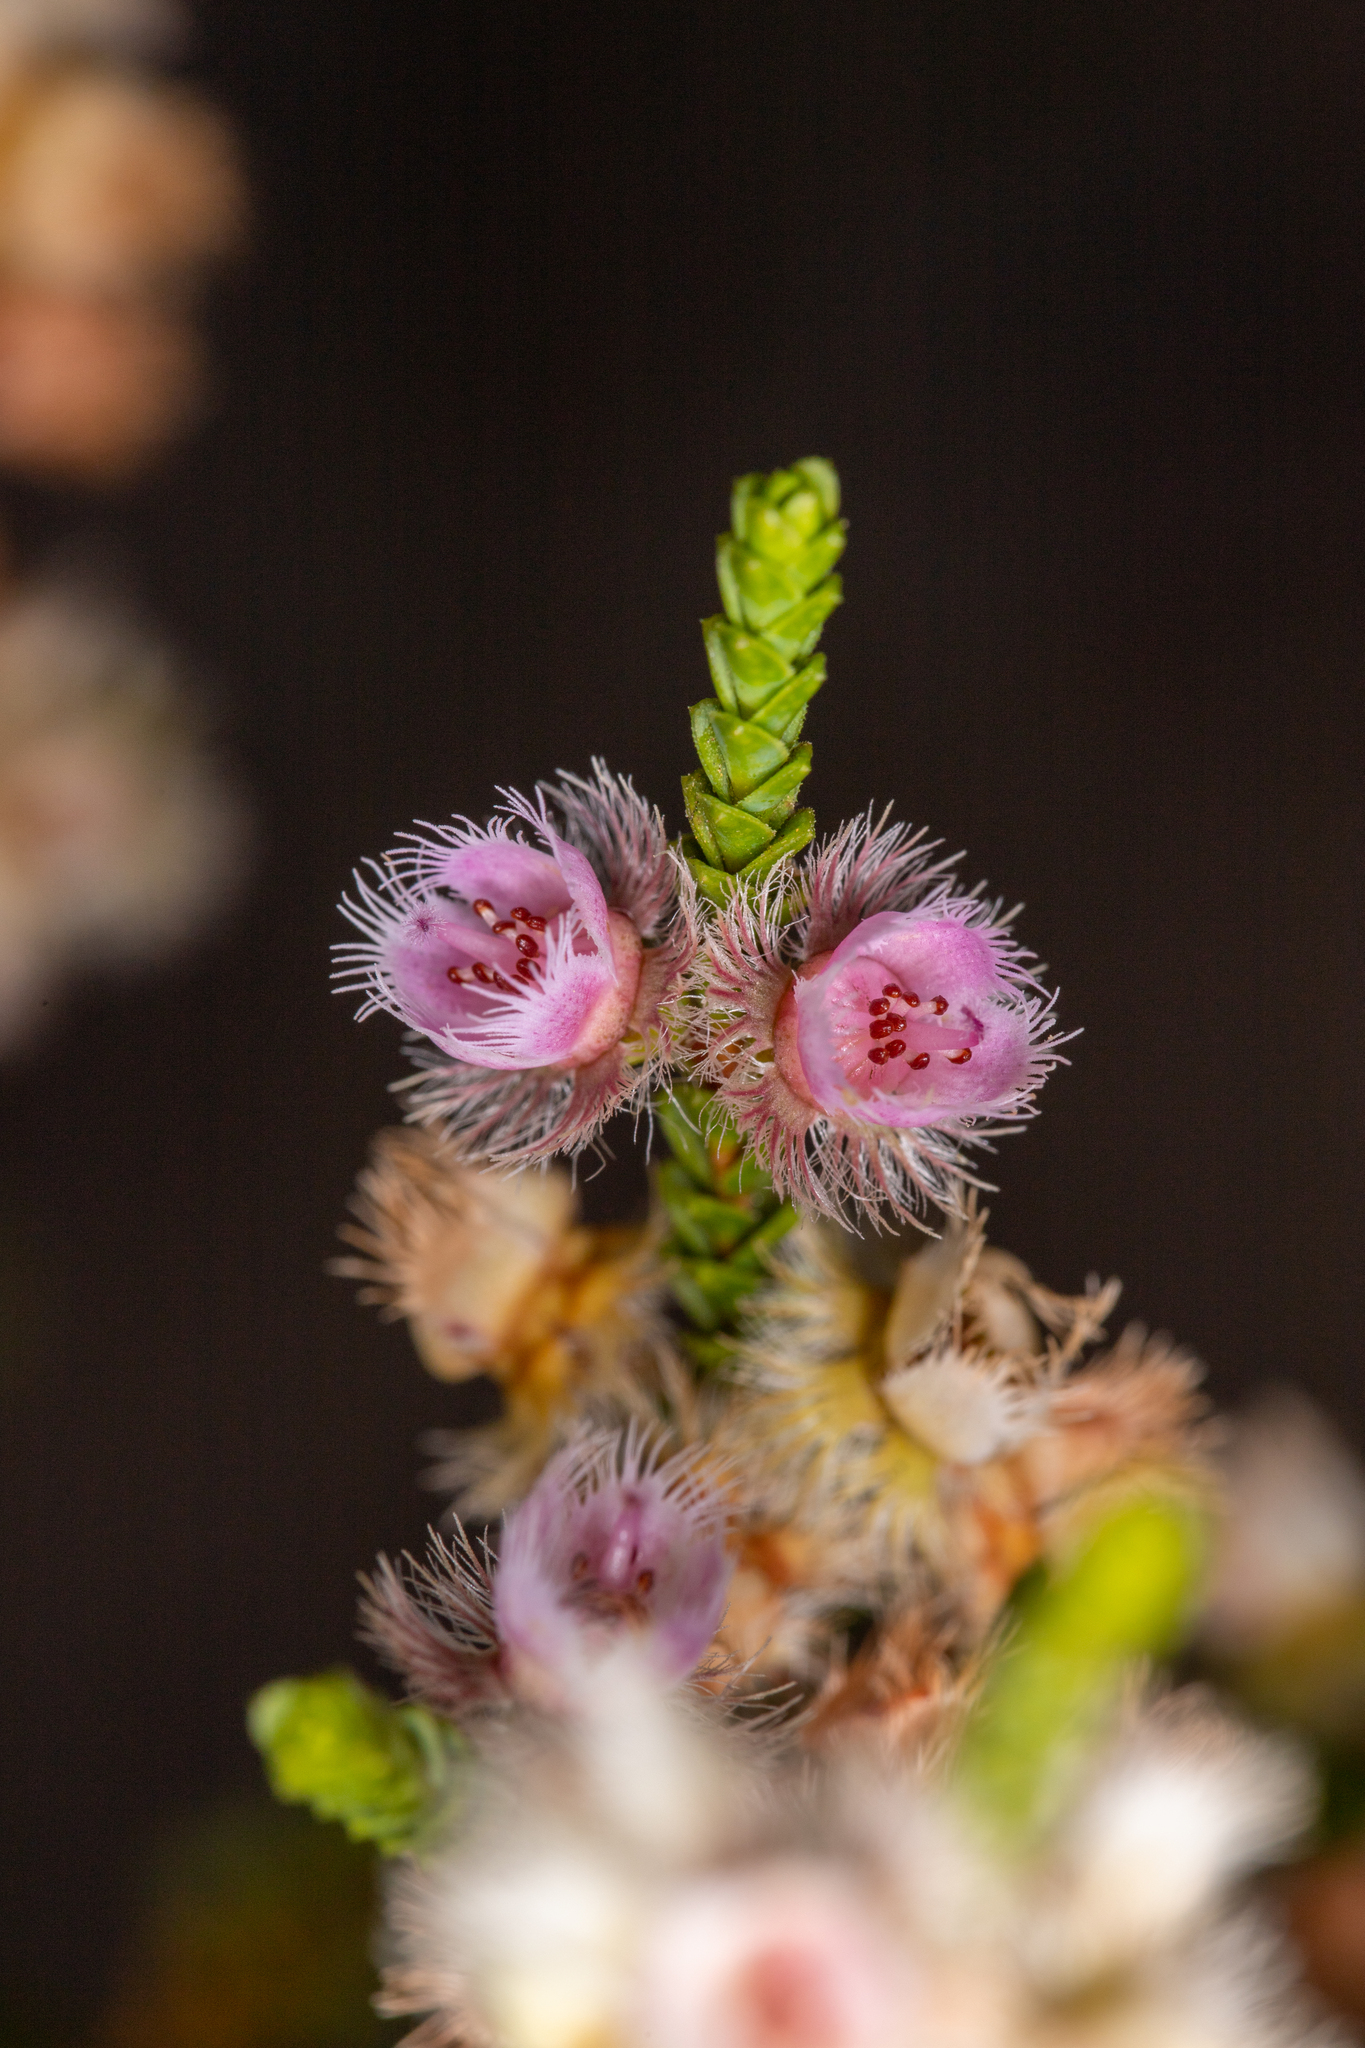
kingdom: Plantae
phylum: Tracheophyta
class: Magnoliopsida
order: Myrtales
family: Myrtaceae
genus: Verticordia
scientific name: Verticordia pholidophylla
